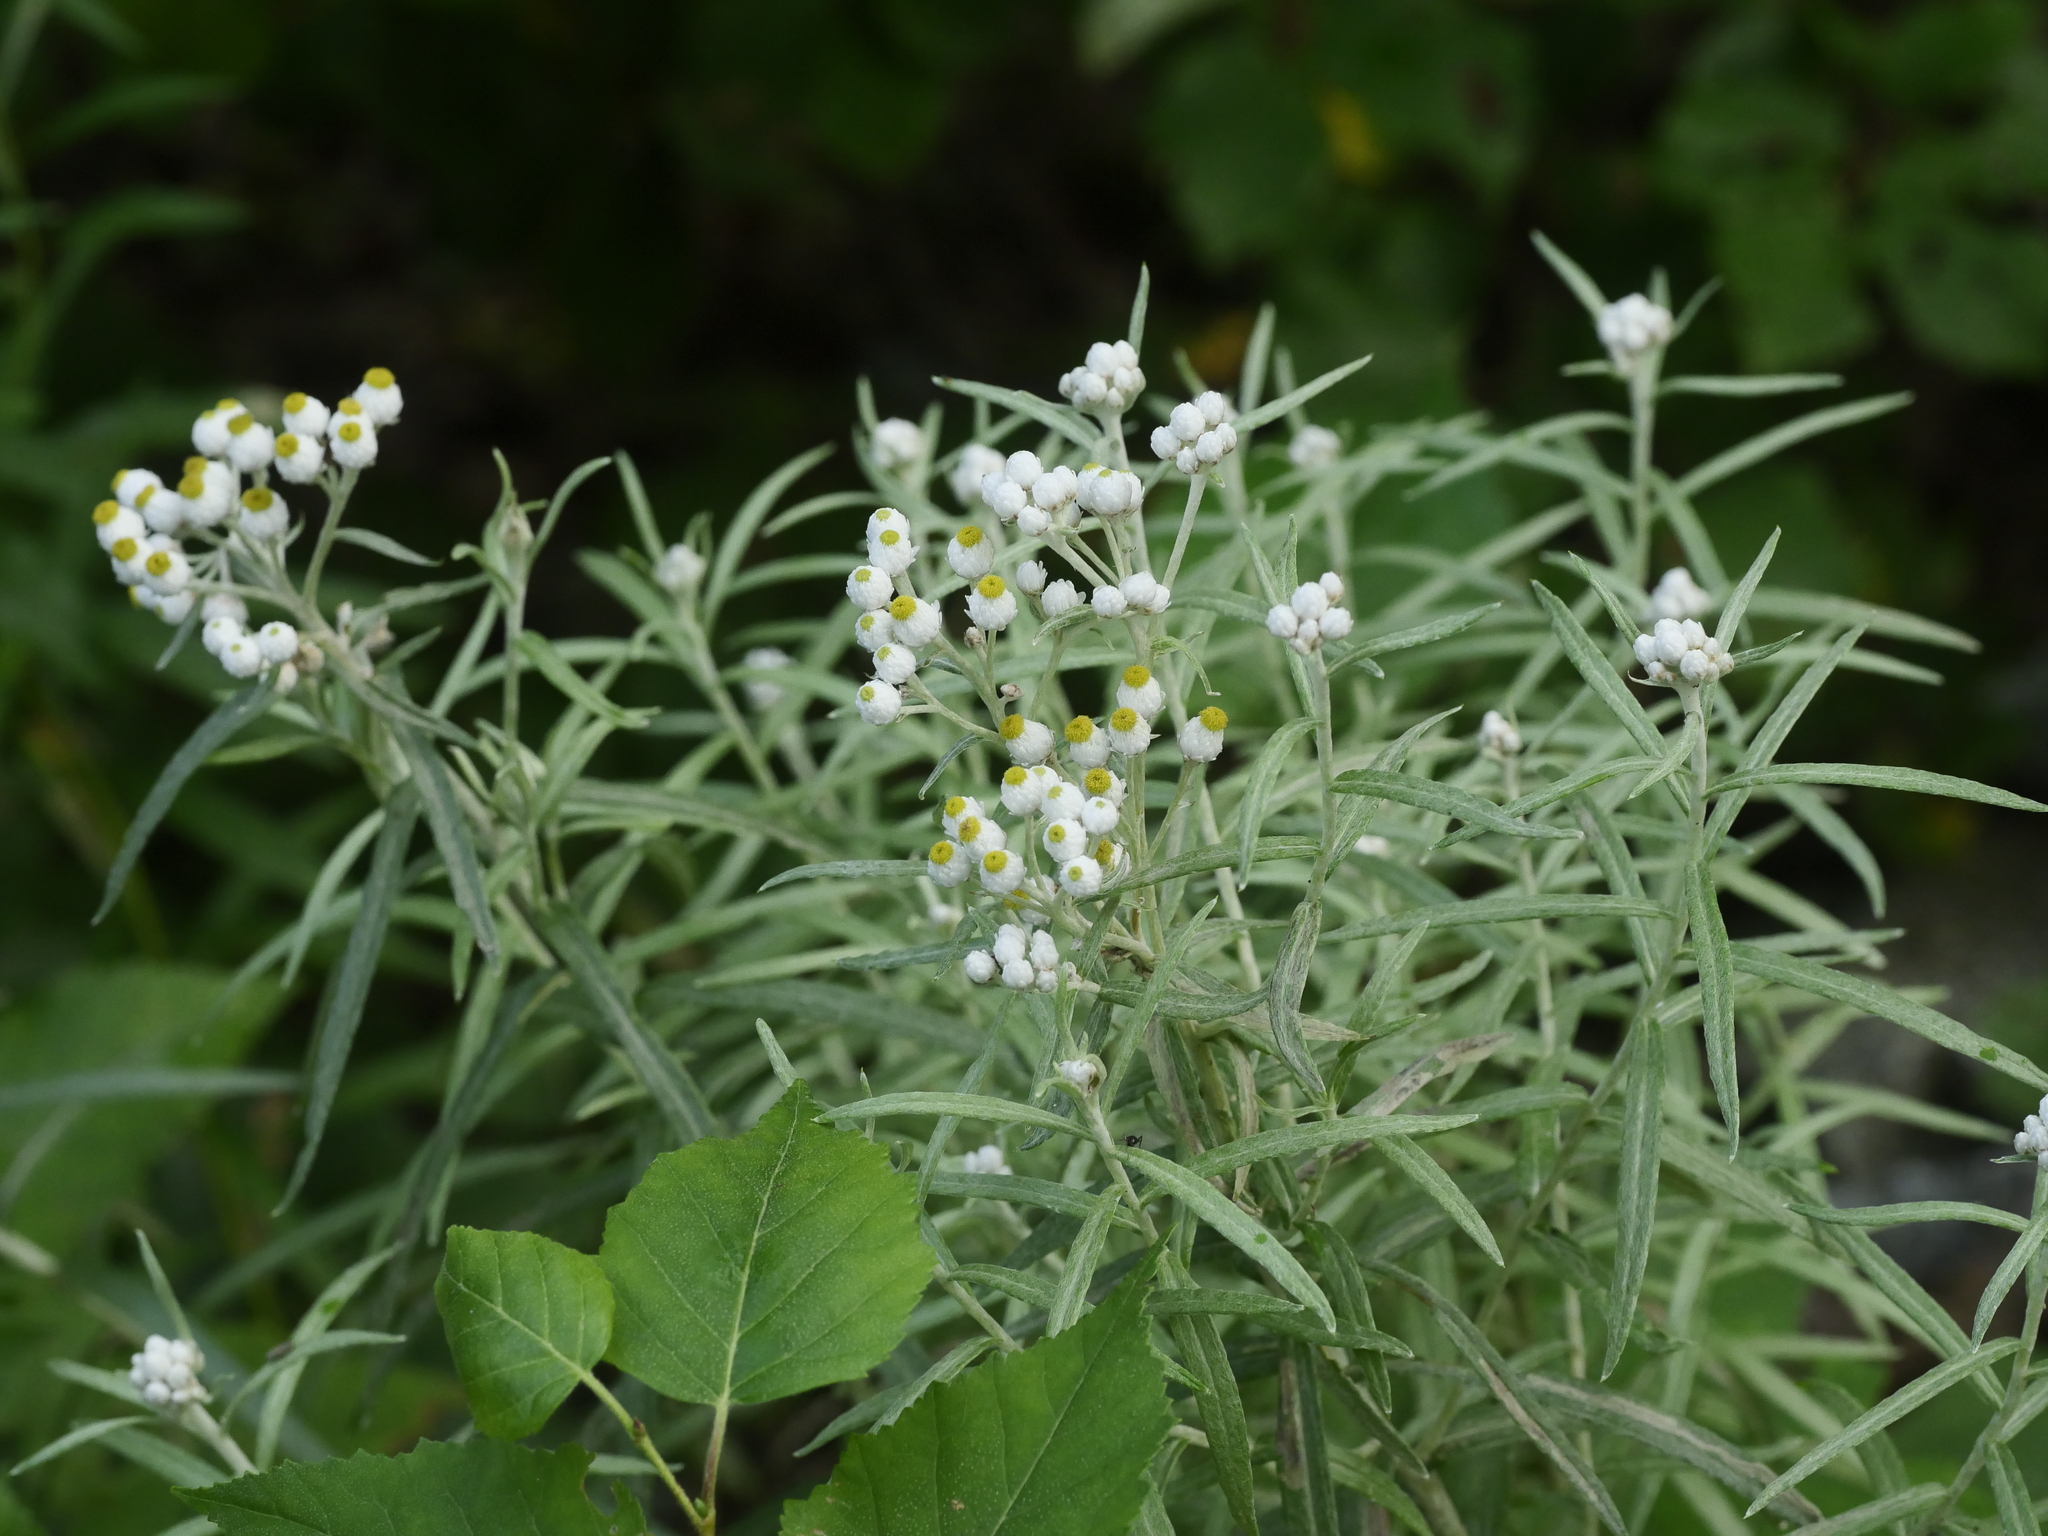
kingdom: Plantae
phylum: Tracheophyta
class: Magnoliopsida
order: Asterales
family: Asteraceae
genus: Anaphalis
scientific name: Anaphalis margaritacea
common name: Pearly everlasting
